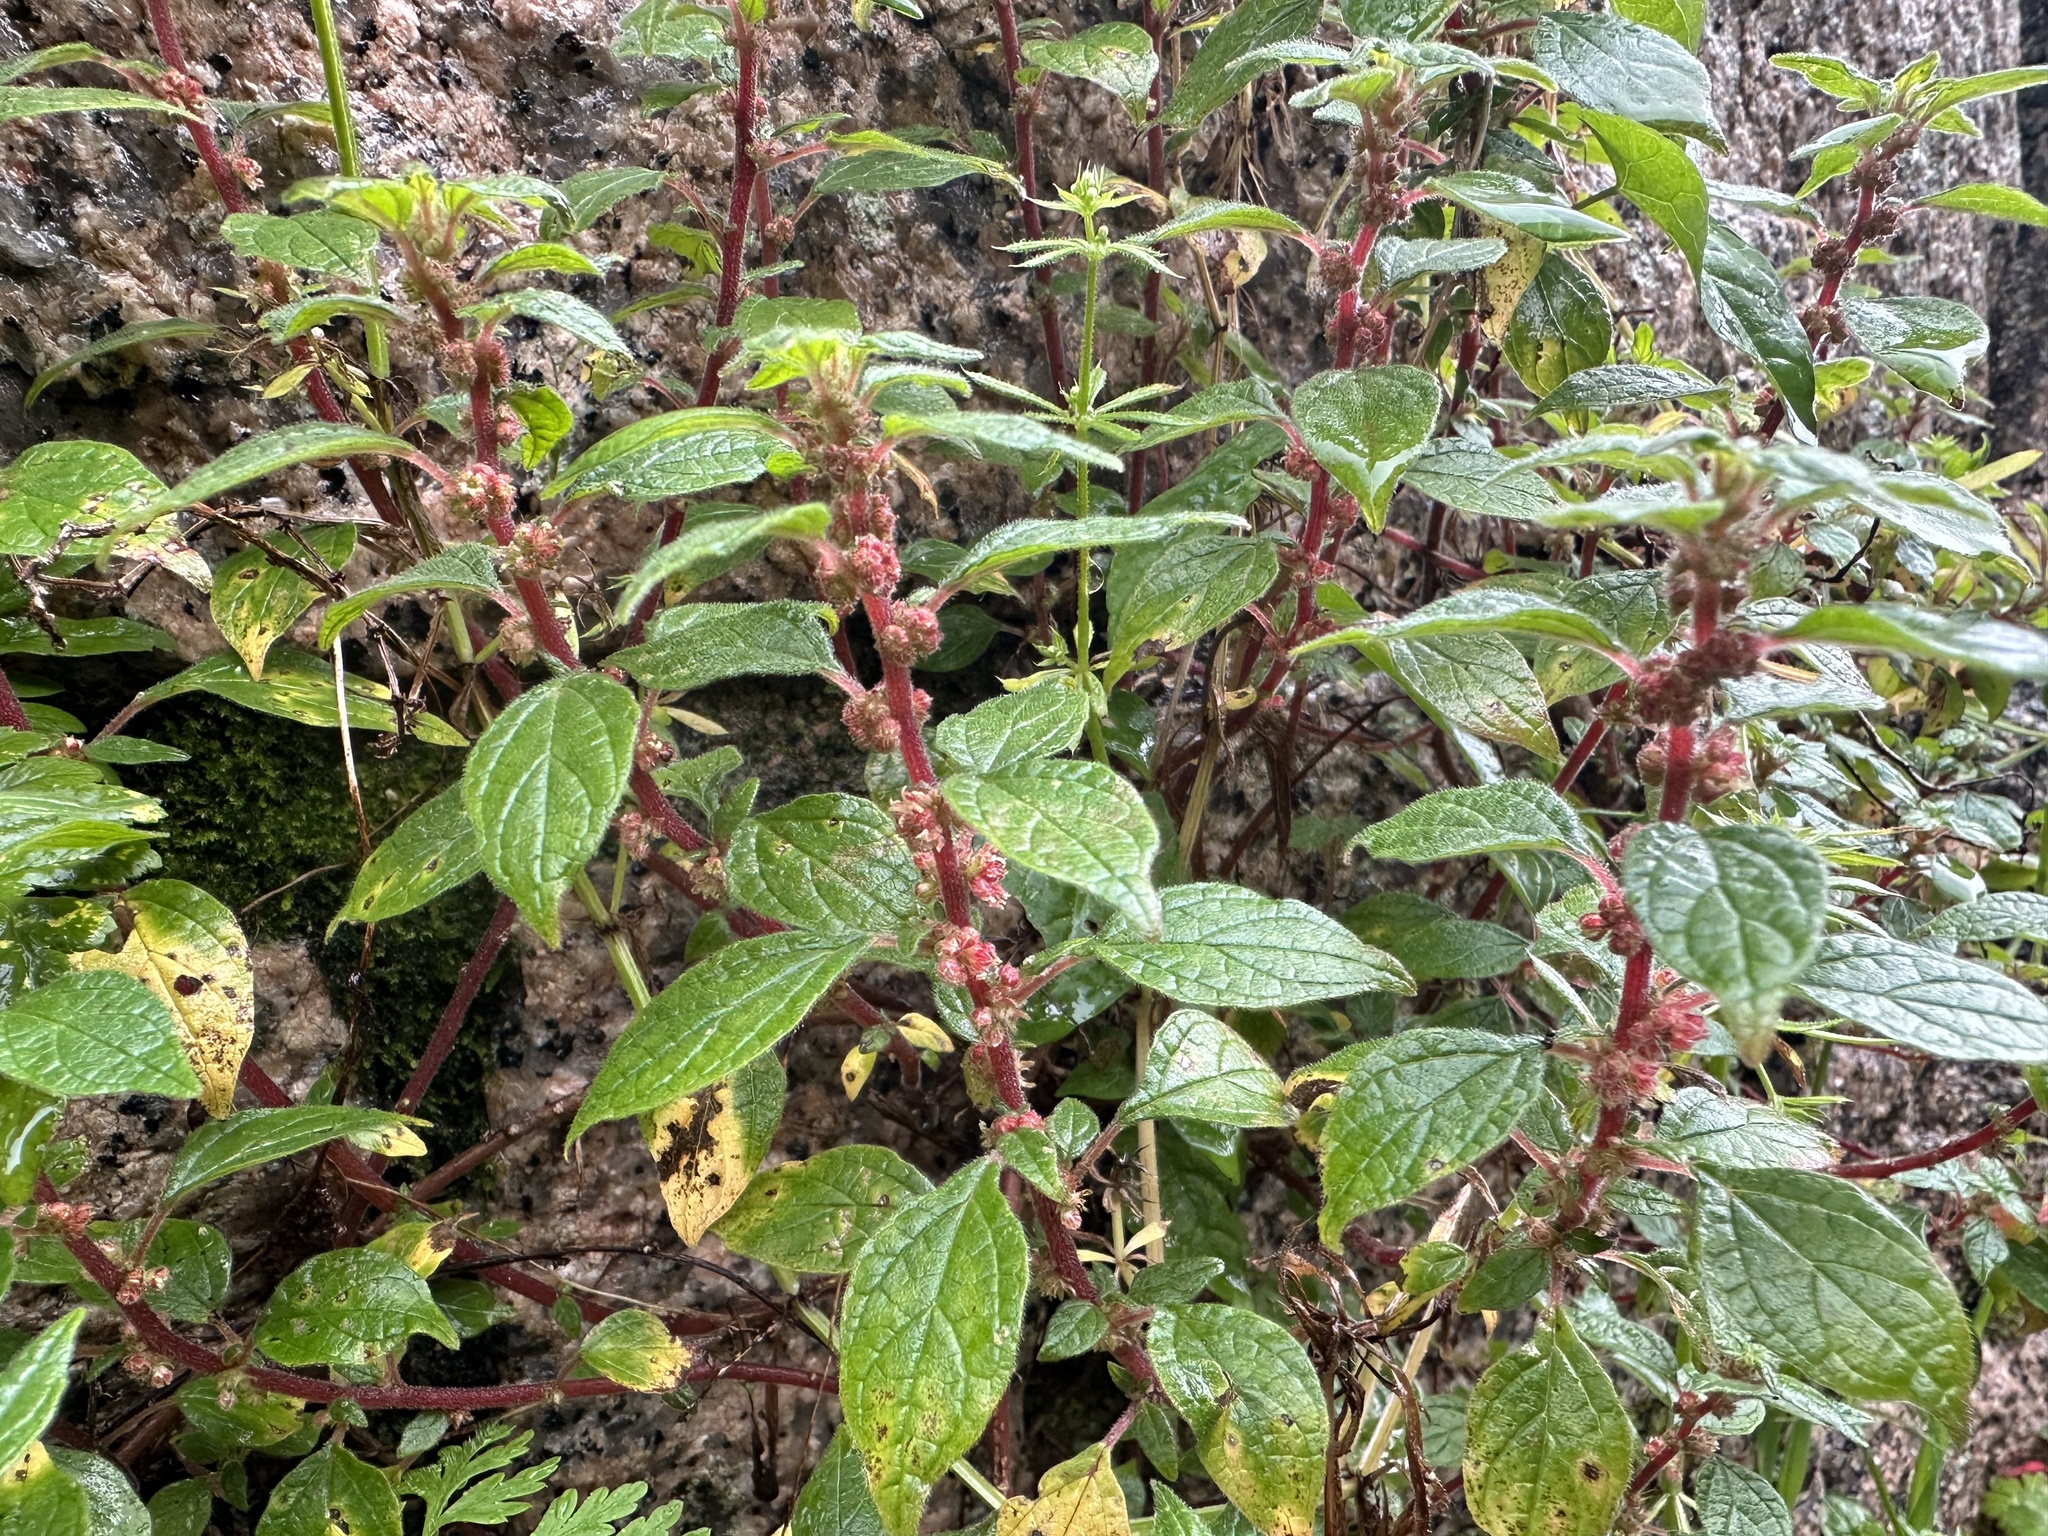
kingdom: Plantae
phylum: Tracheophyta
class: Magnoliopsida
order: Rosales
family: Urticaceae
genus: Parietaria
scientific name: Parietaria judaica
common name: Pellitory-of-the-wall
